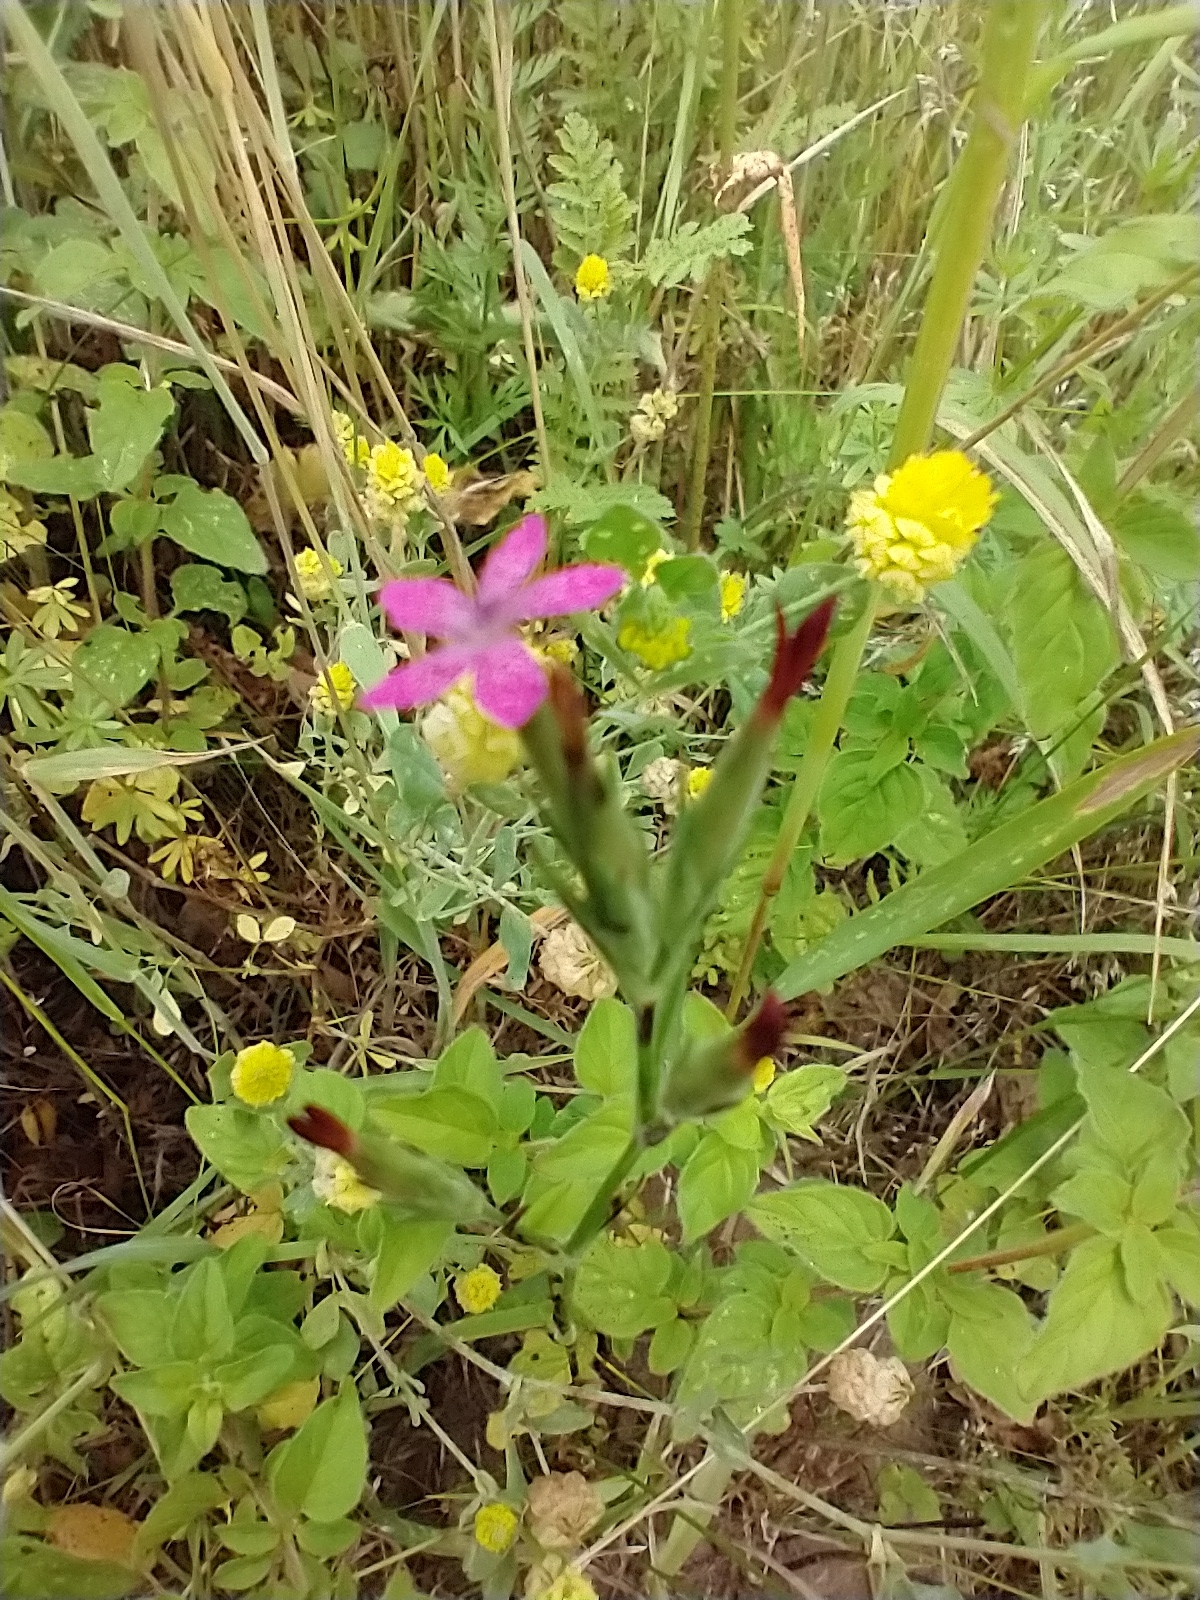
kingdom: Plantae
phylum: Tracheophyta
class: Magnoliopsida
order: Caryophyllales
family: Caryophyllaceae
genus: Dianthus
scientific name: Dianthus armeria
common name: Deptford pink
